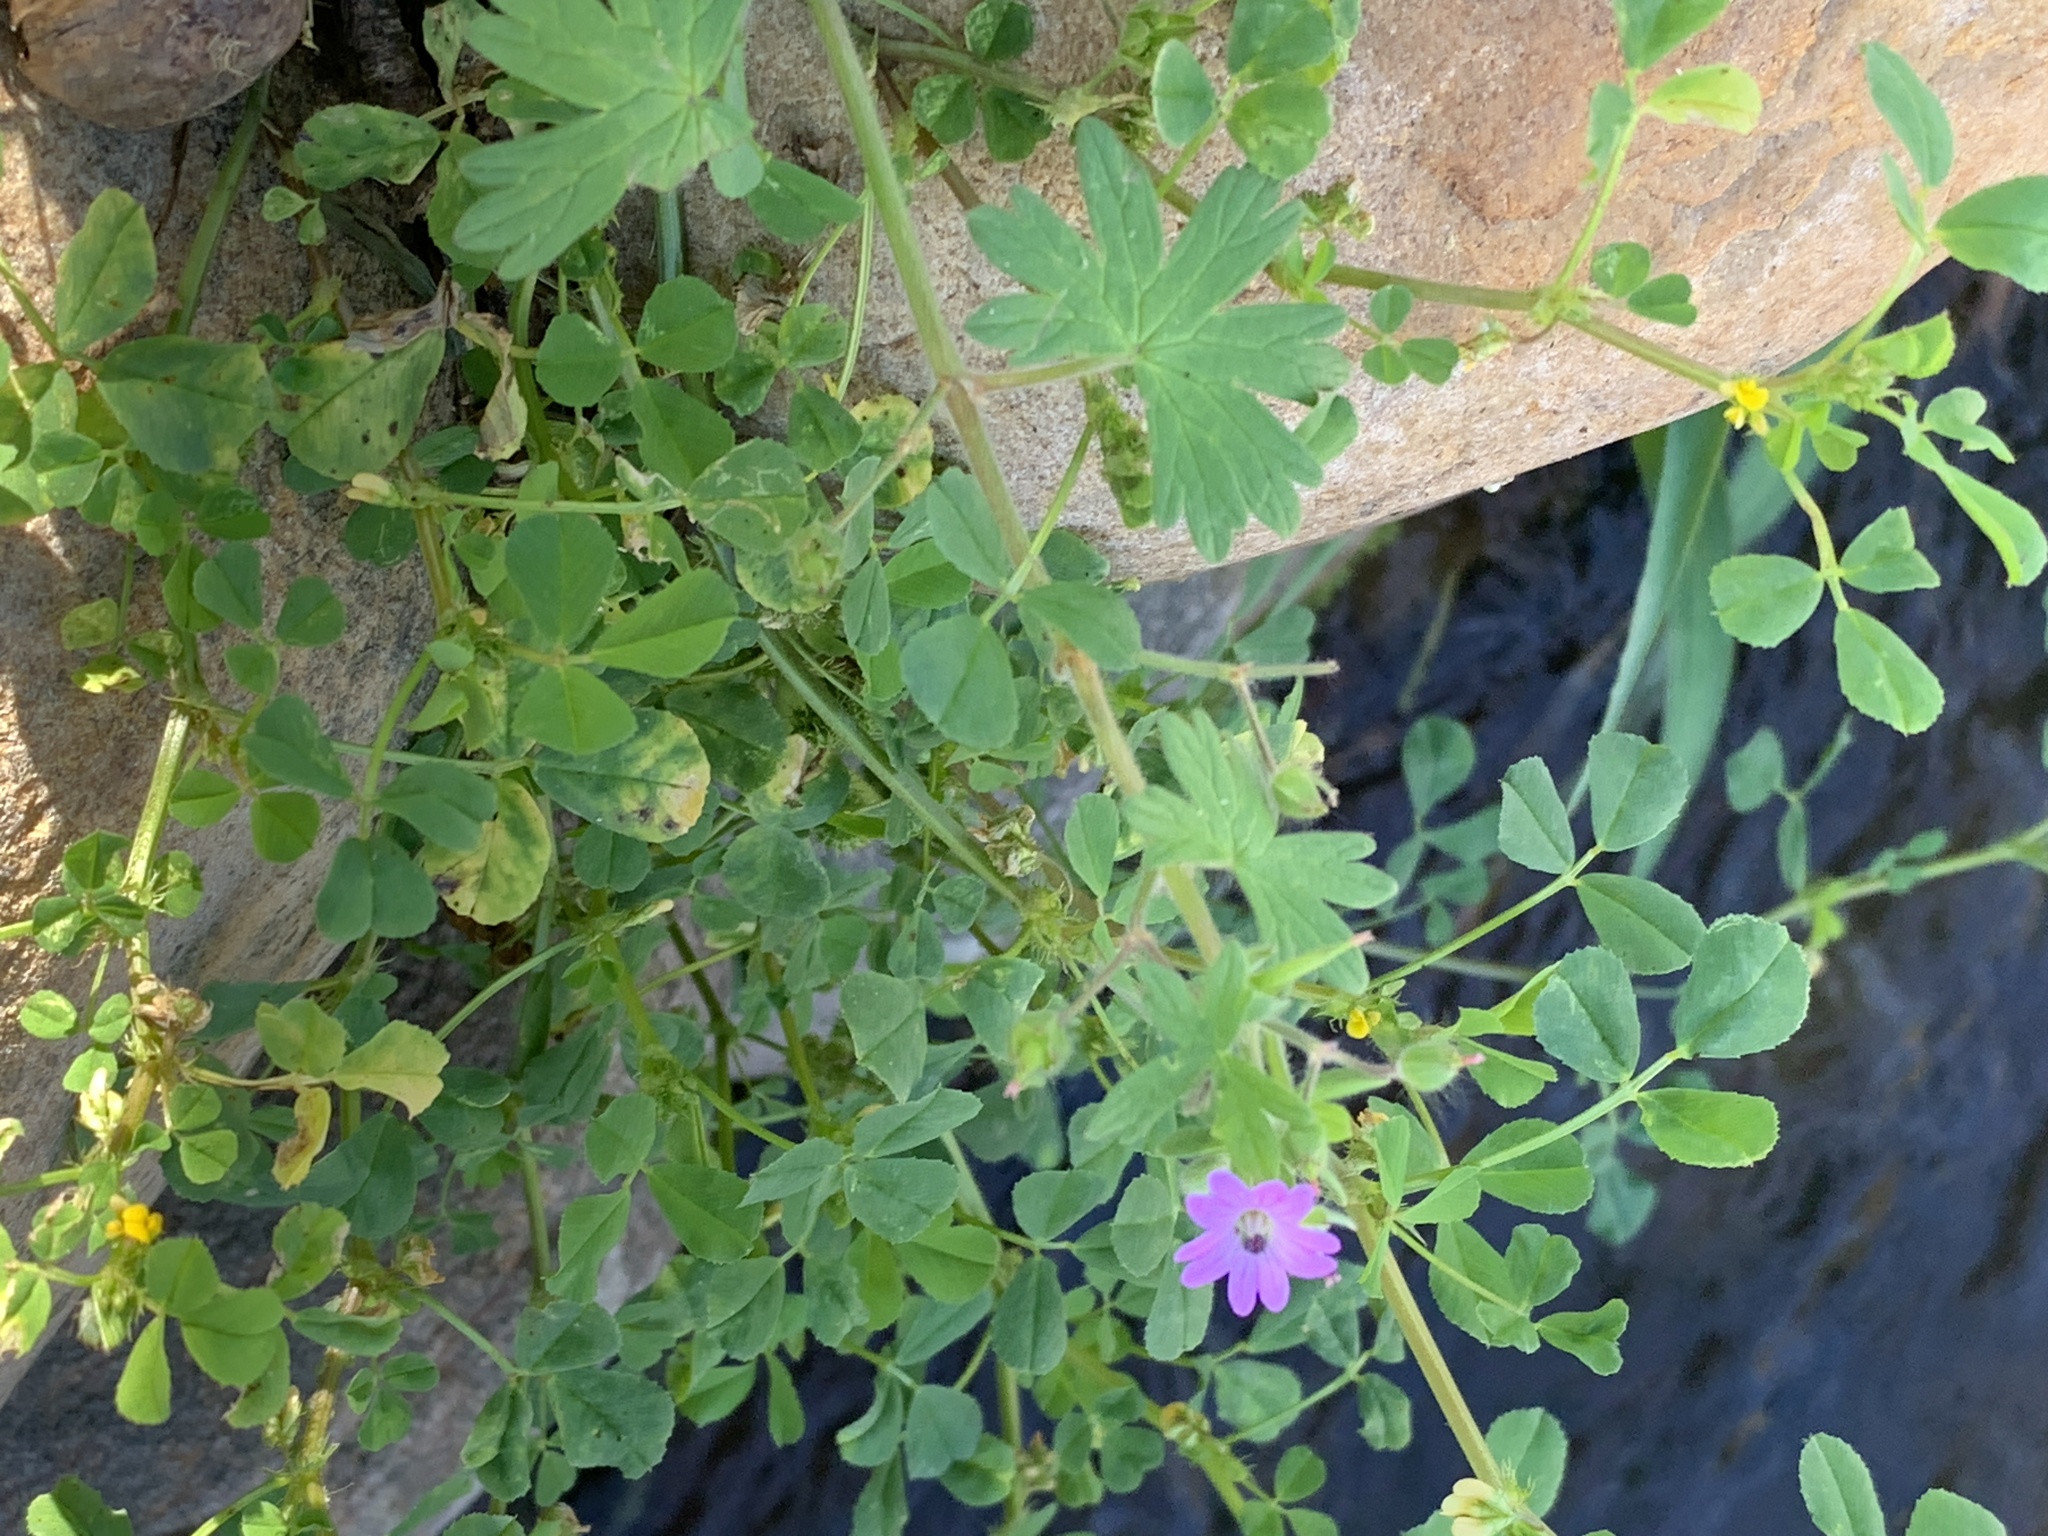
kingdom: Plantae
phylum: Tracheophyta
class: Magnoliopsida
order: Geraniales
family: Geraniaceae
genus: Geranium
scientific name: Geranium molle
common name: Dove's-foot crane's-bill
